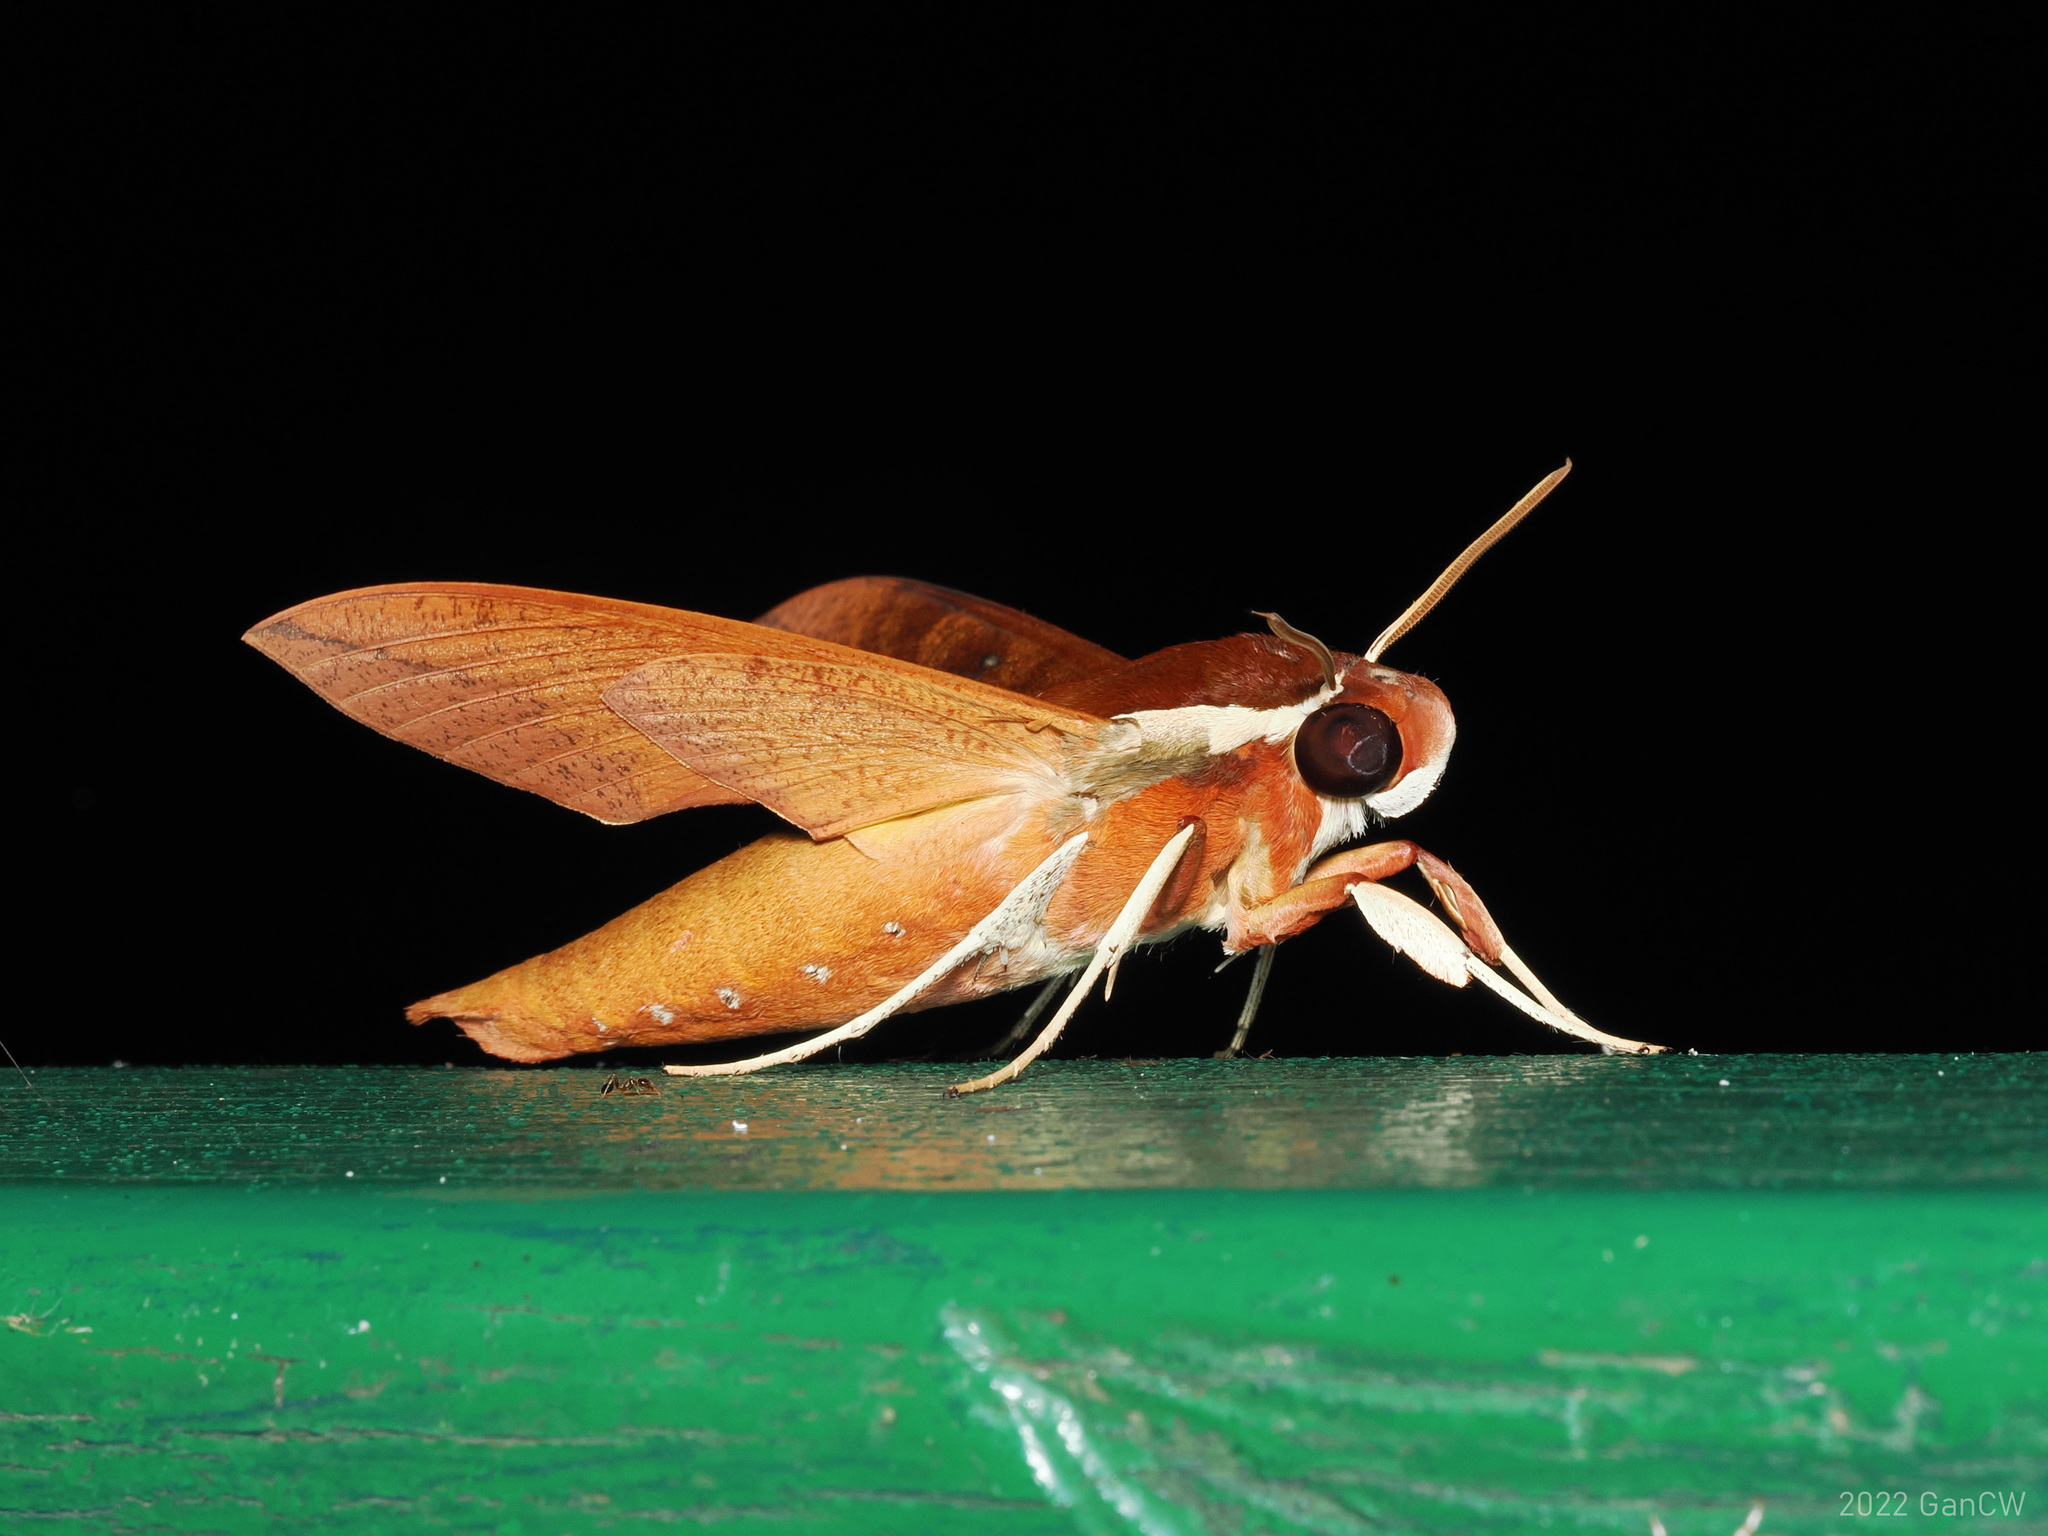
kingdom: Animalia
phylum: Arthropoda
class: Insecta
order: Lepidoptera
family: Sphingidae
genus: Gnathothlibus
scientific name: Gnathothlibus erotus
